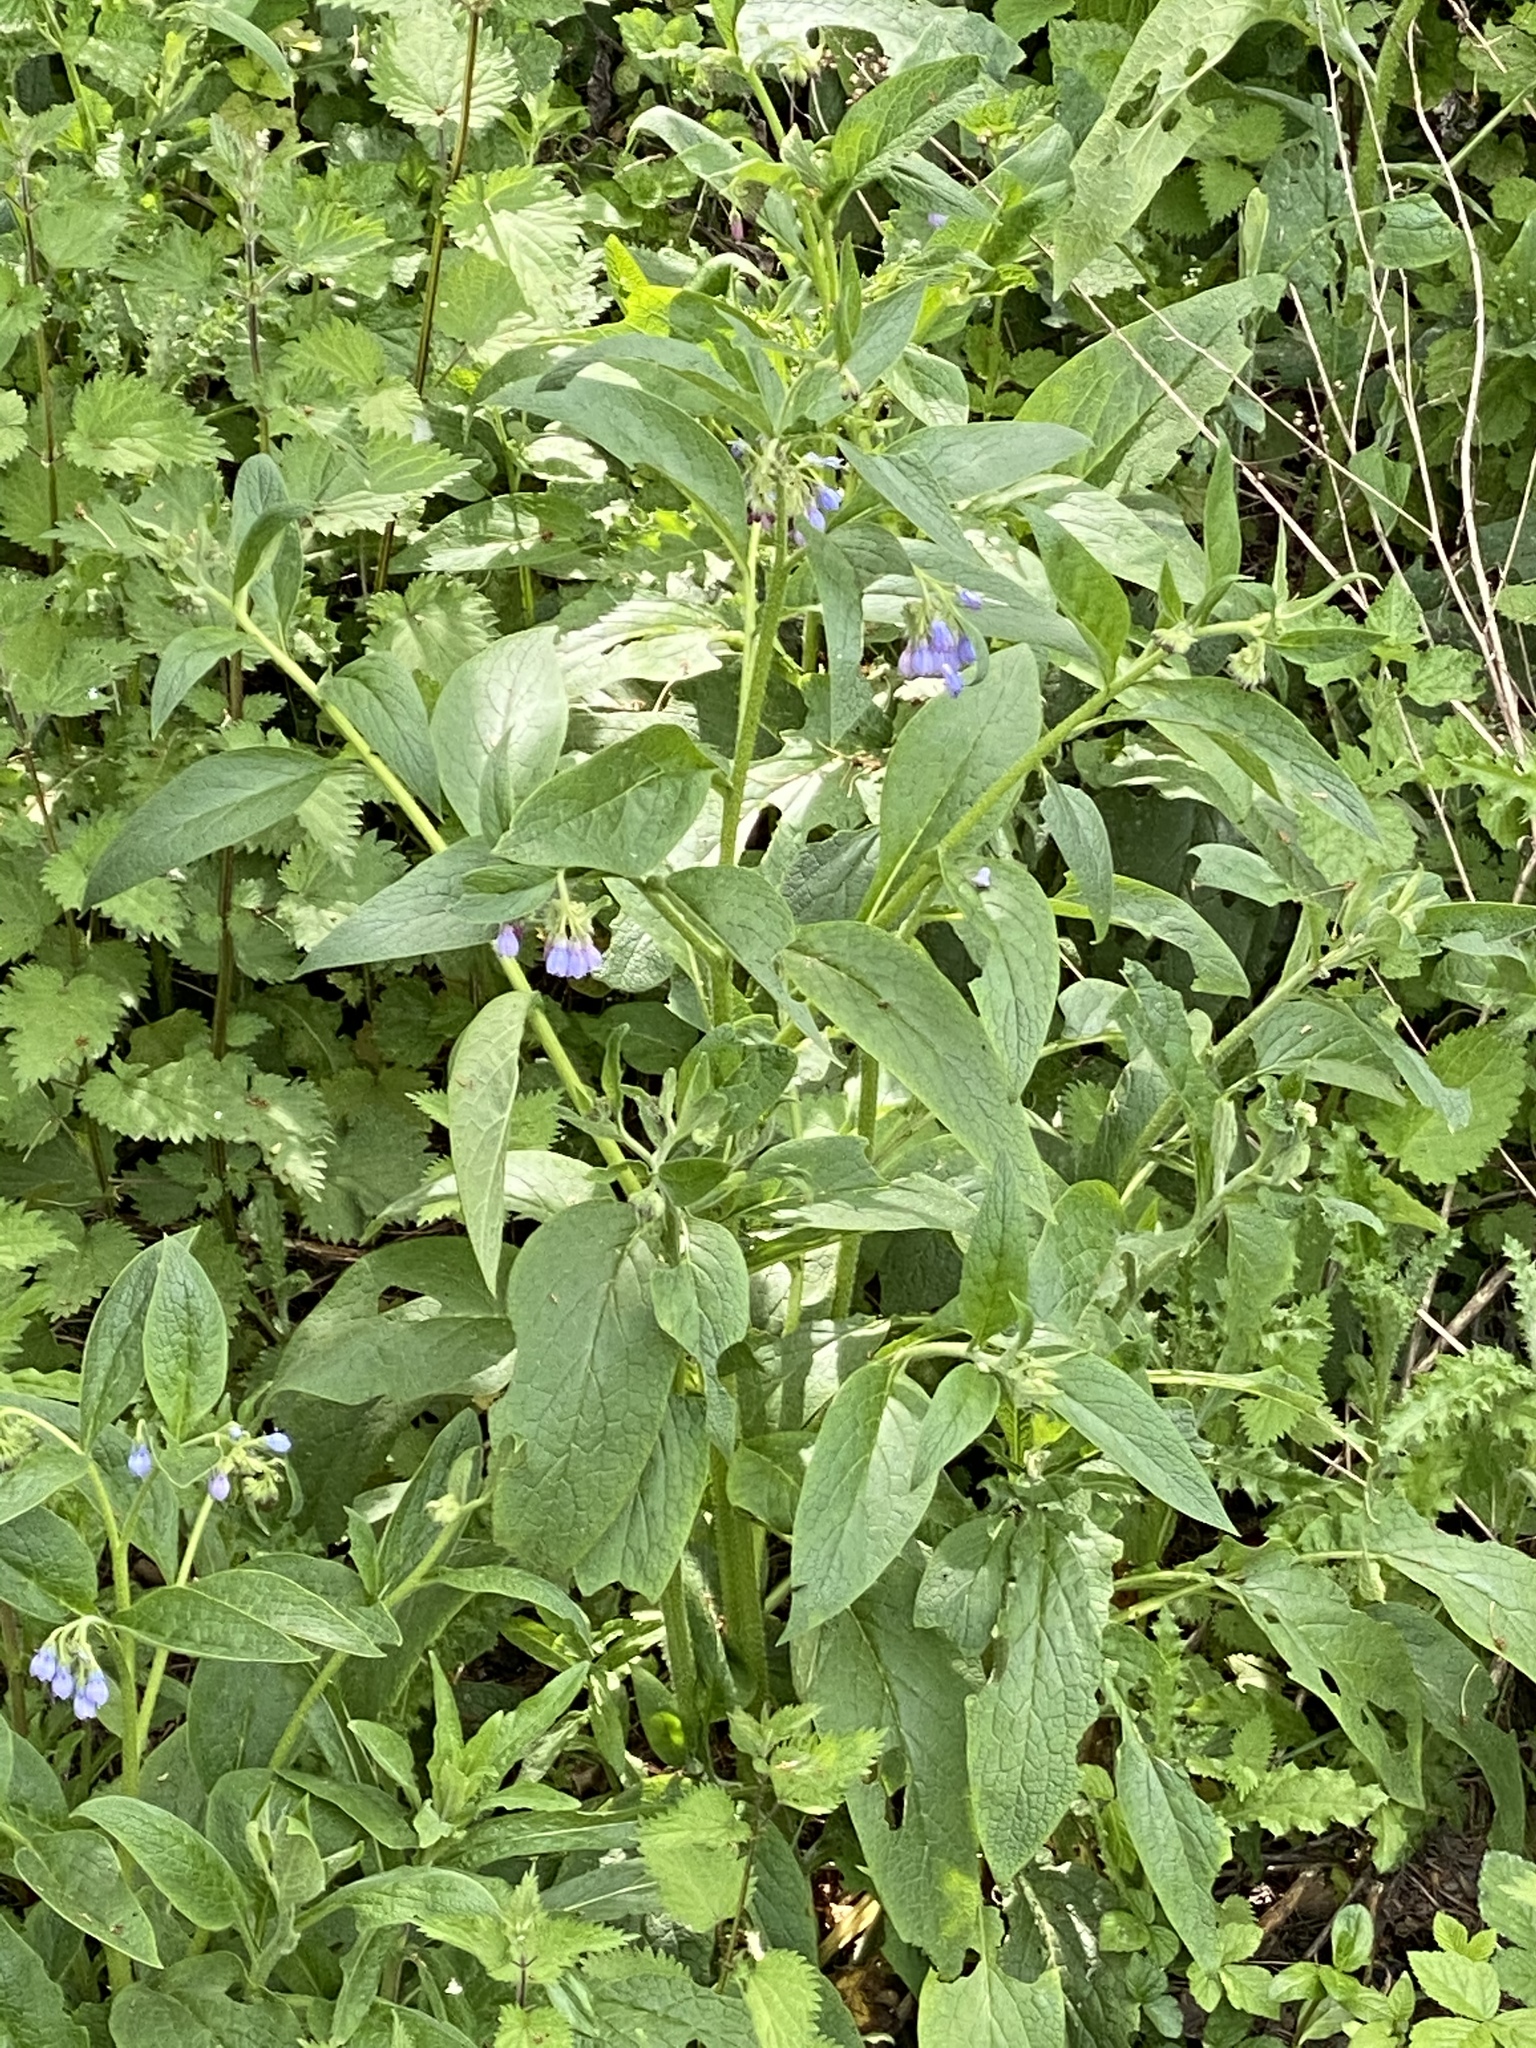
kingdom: Plantae
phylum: Tracheophyta
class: Magnoliopsida
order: Boraginales
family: Boraginaceae
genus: Symphytum
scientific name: Symphytum officinale
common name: Common comfrey
